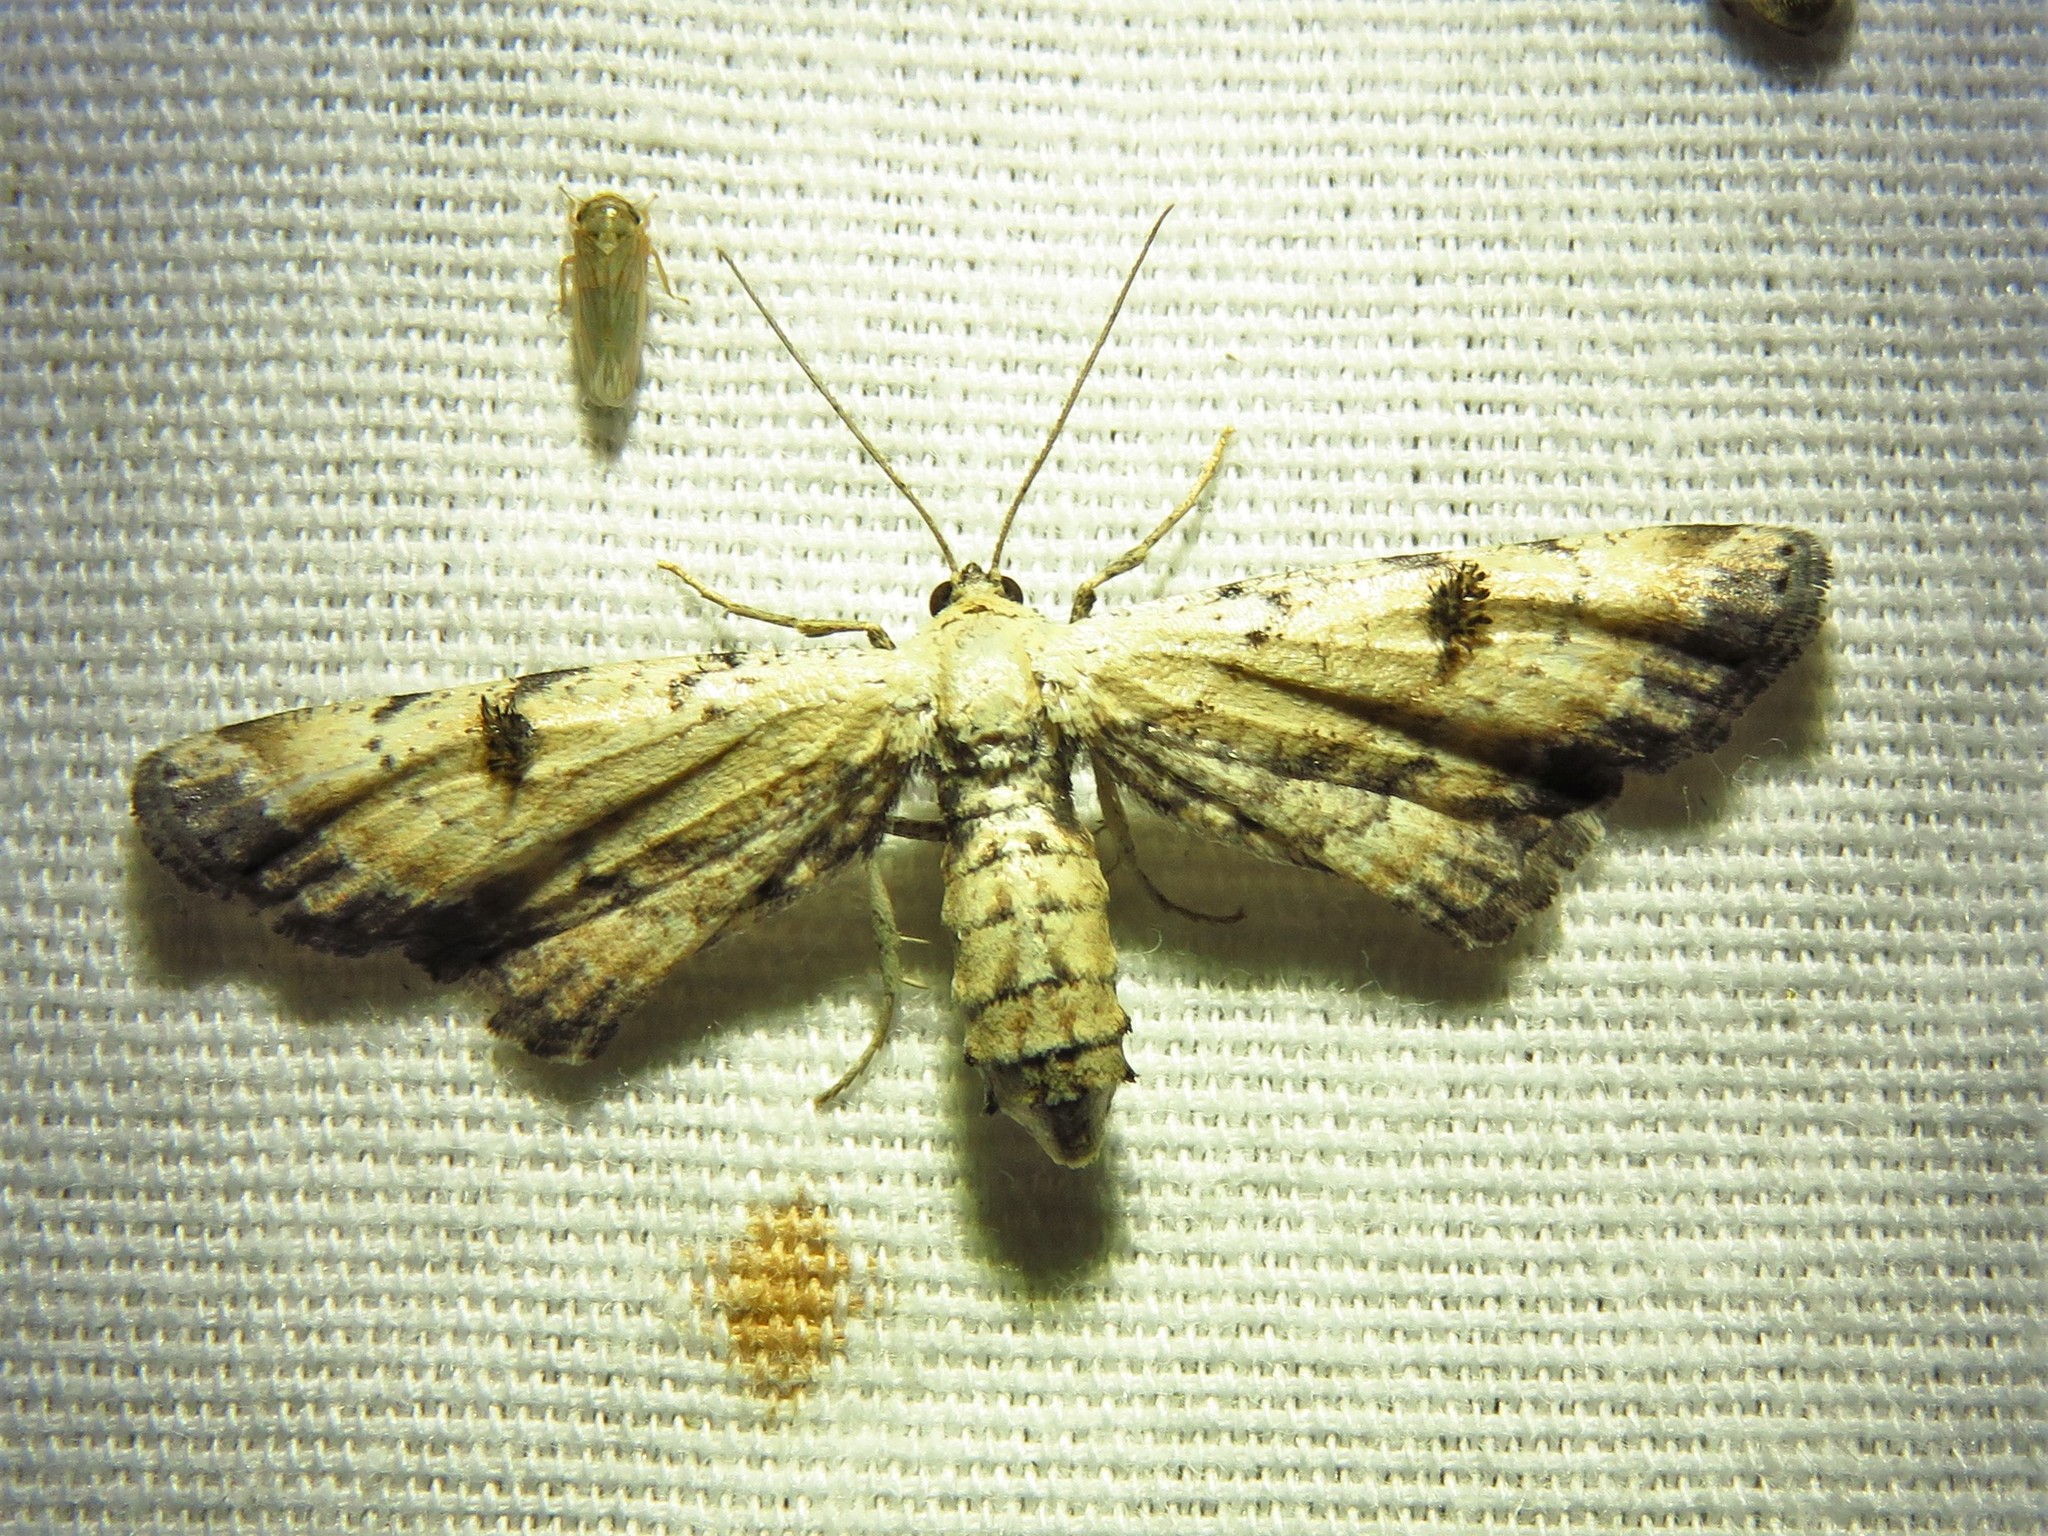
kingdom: Animalia
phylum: Arthropoda
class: Insecta
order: Lepidoptera
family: Geometridae
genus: Tornos
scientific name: Tornos scolopacinaria
